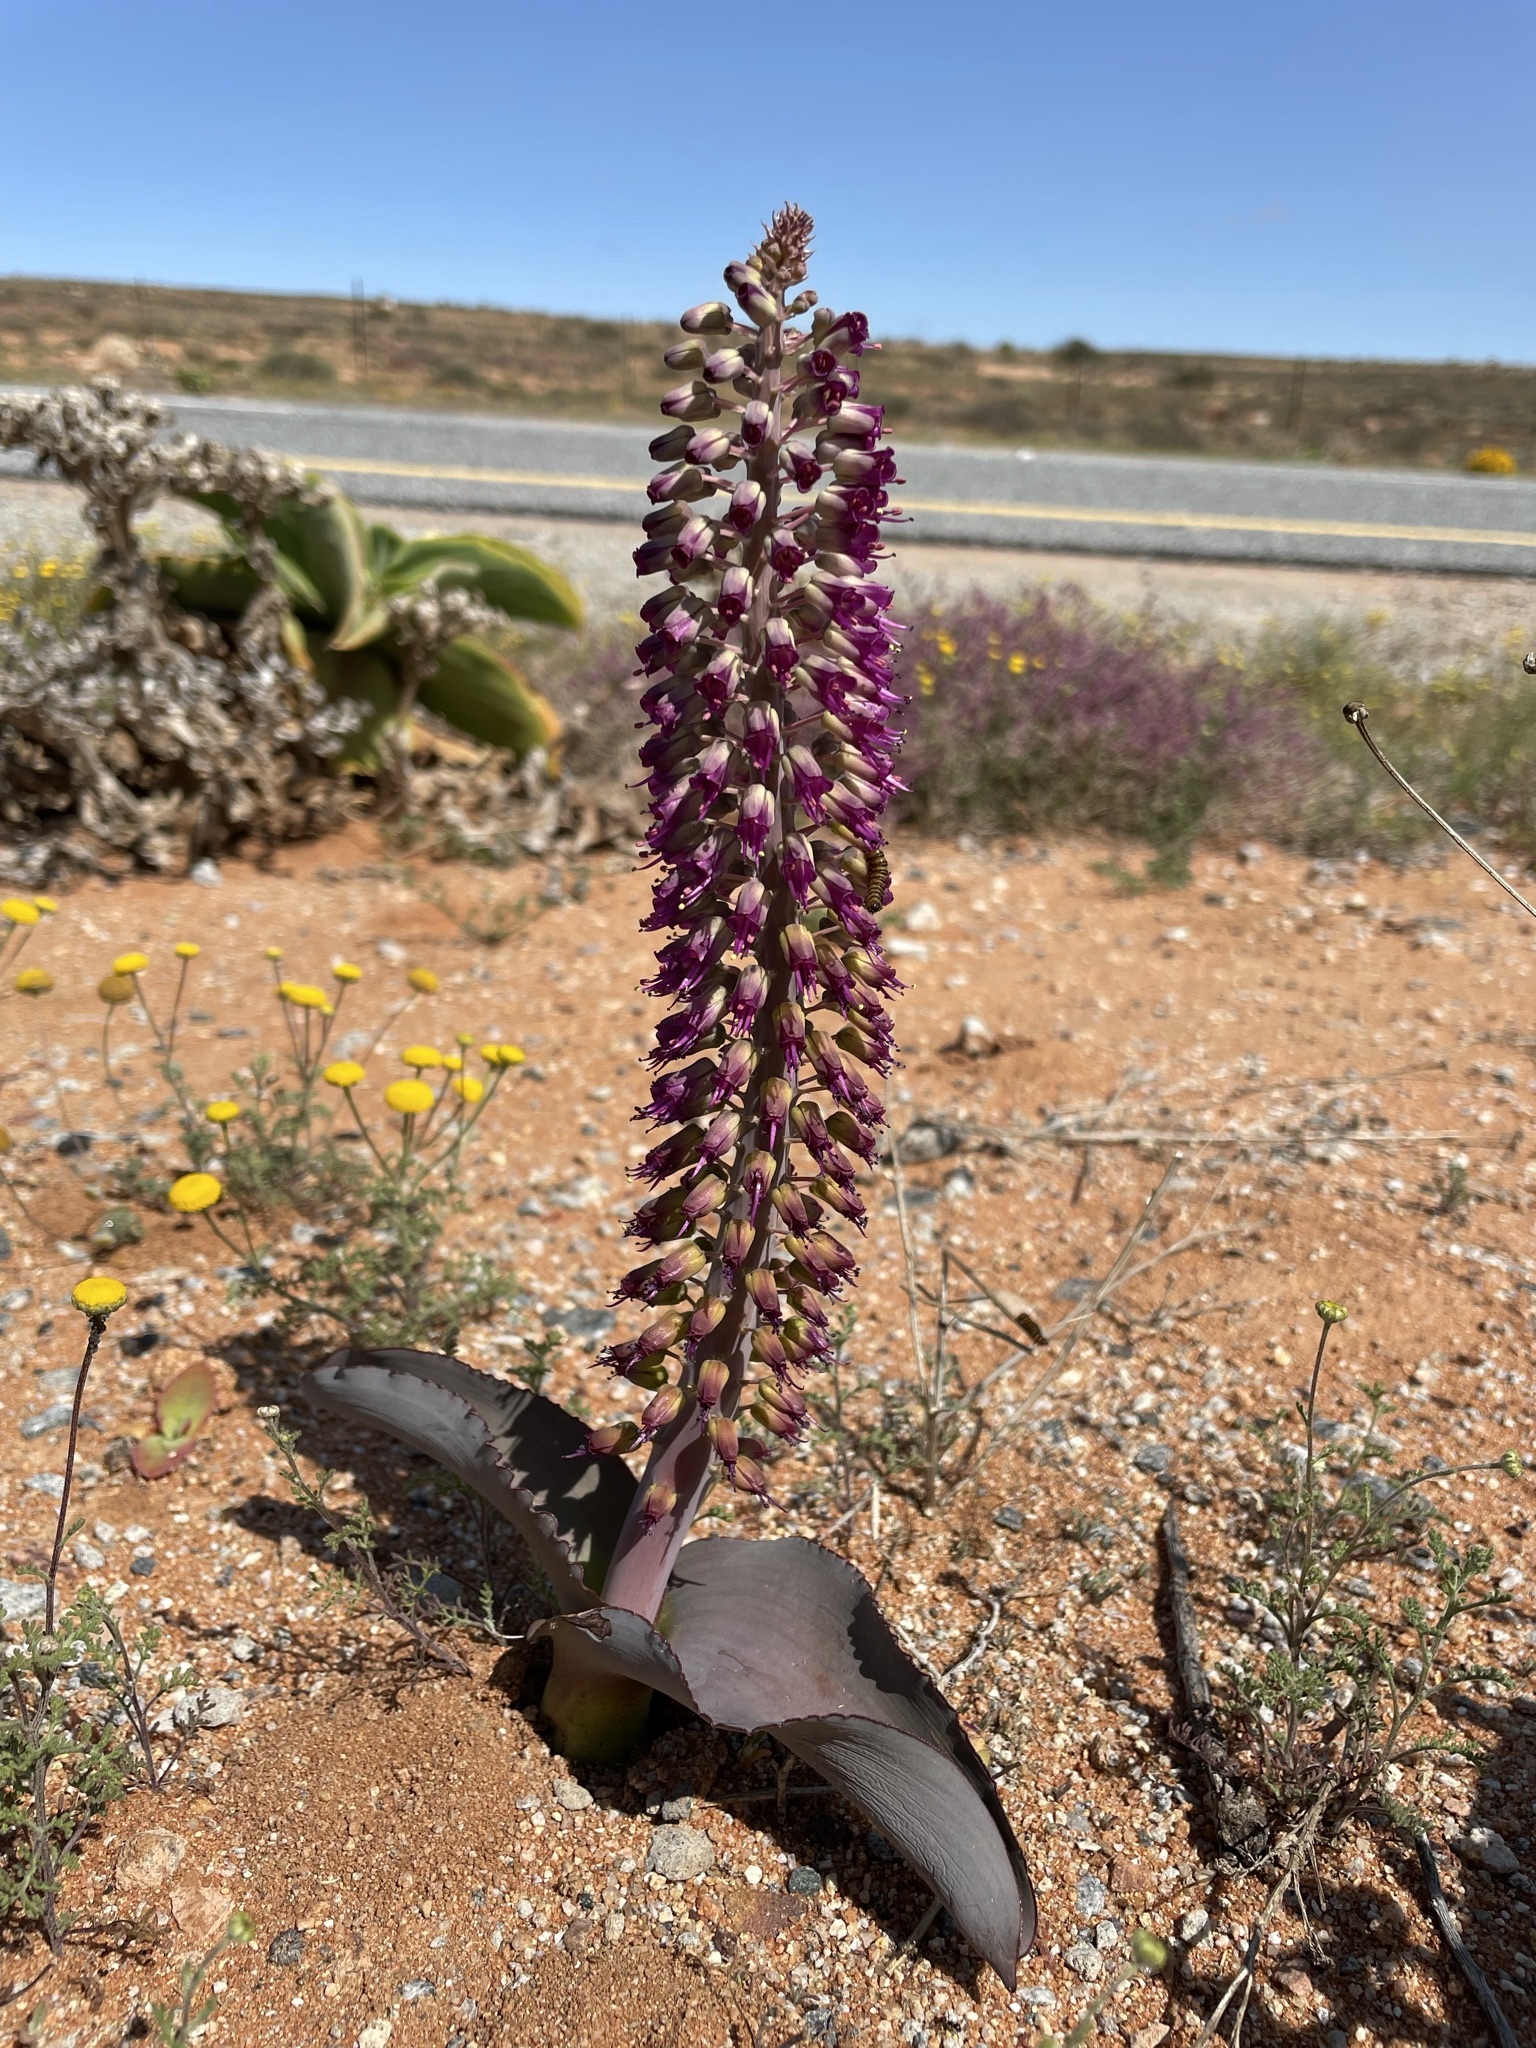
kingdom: Plantae
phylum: Tracheophyta
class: Liliopsida
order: Asparagales
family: Asparagaceae
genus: Lachenalia
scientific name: Lachenalia violacea
